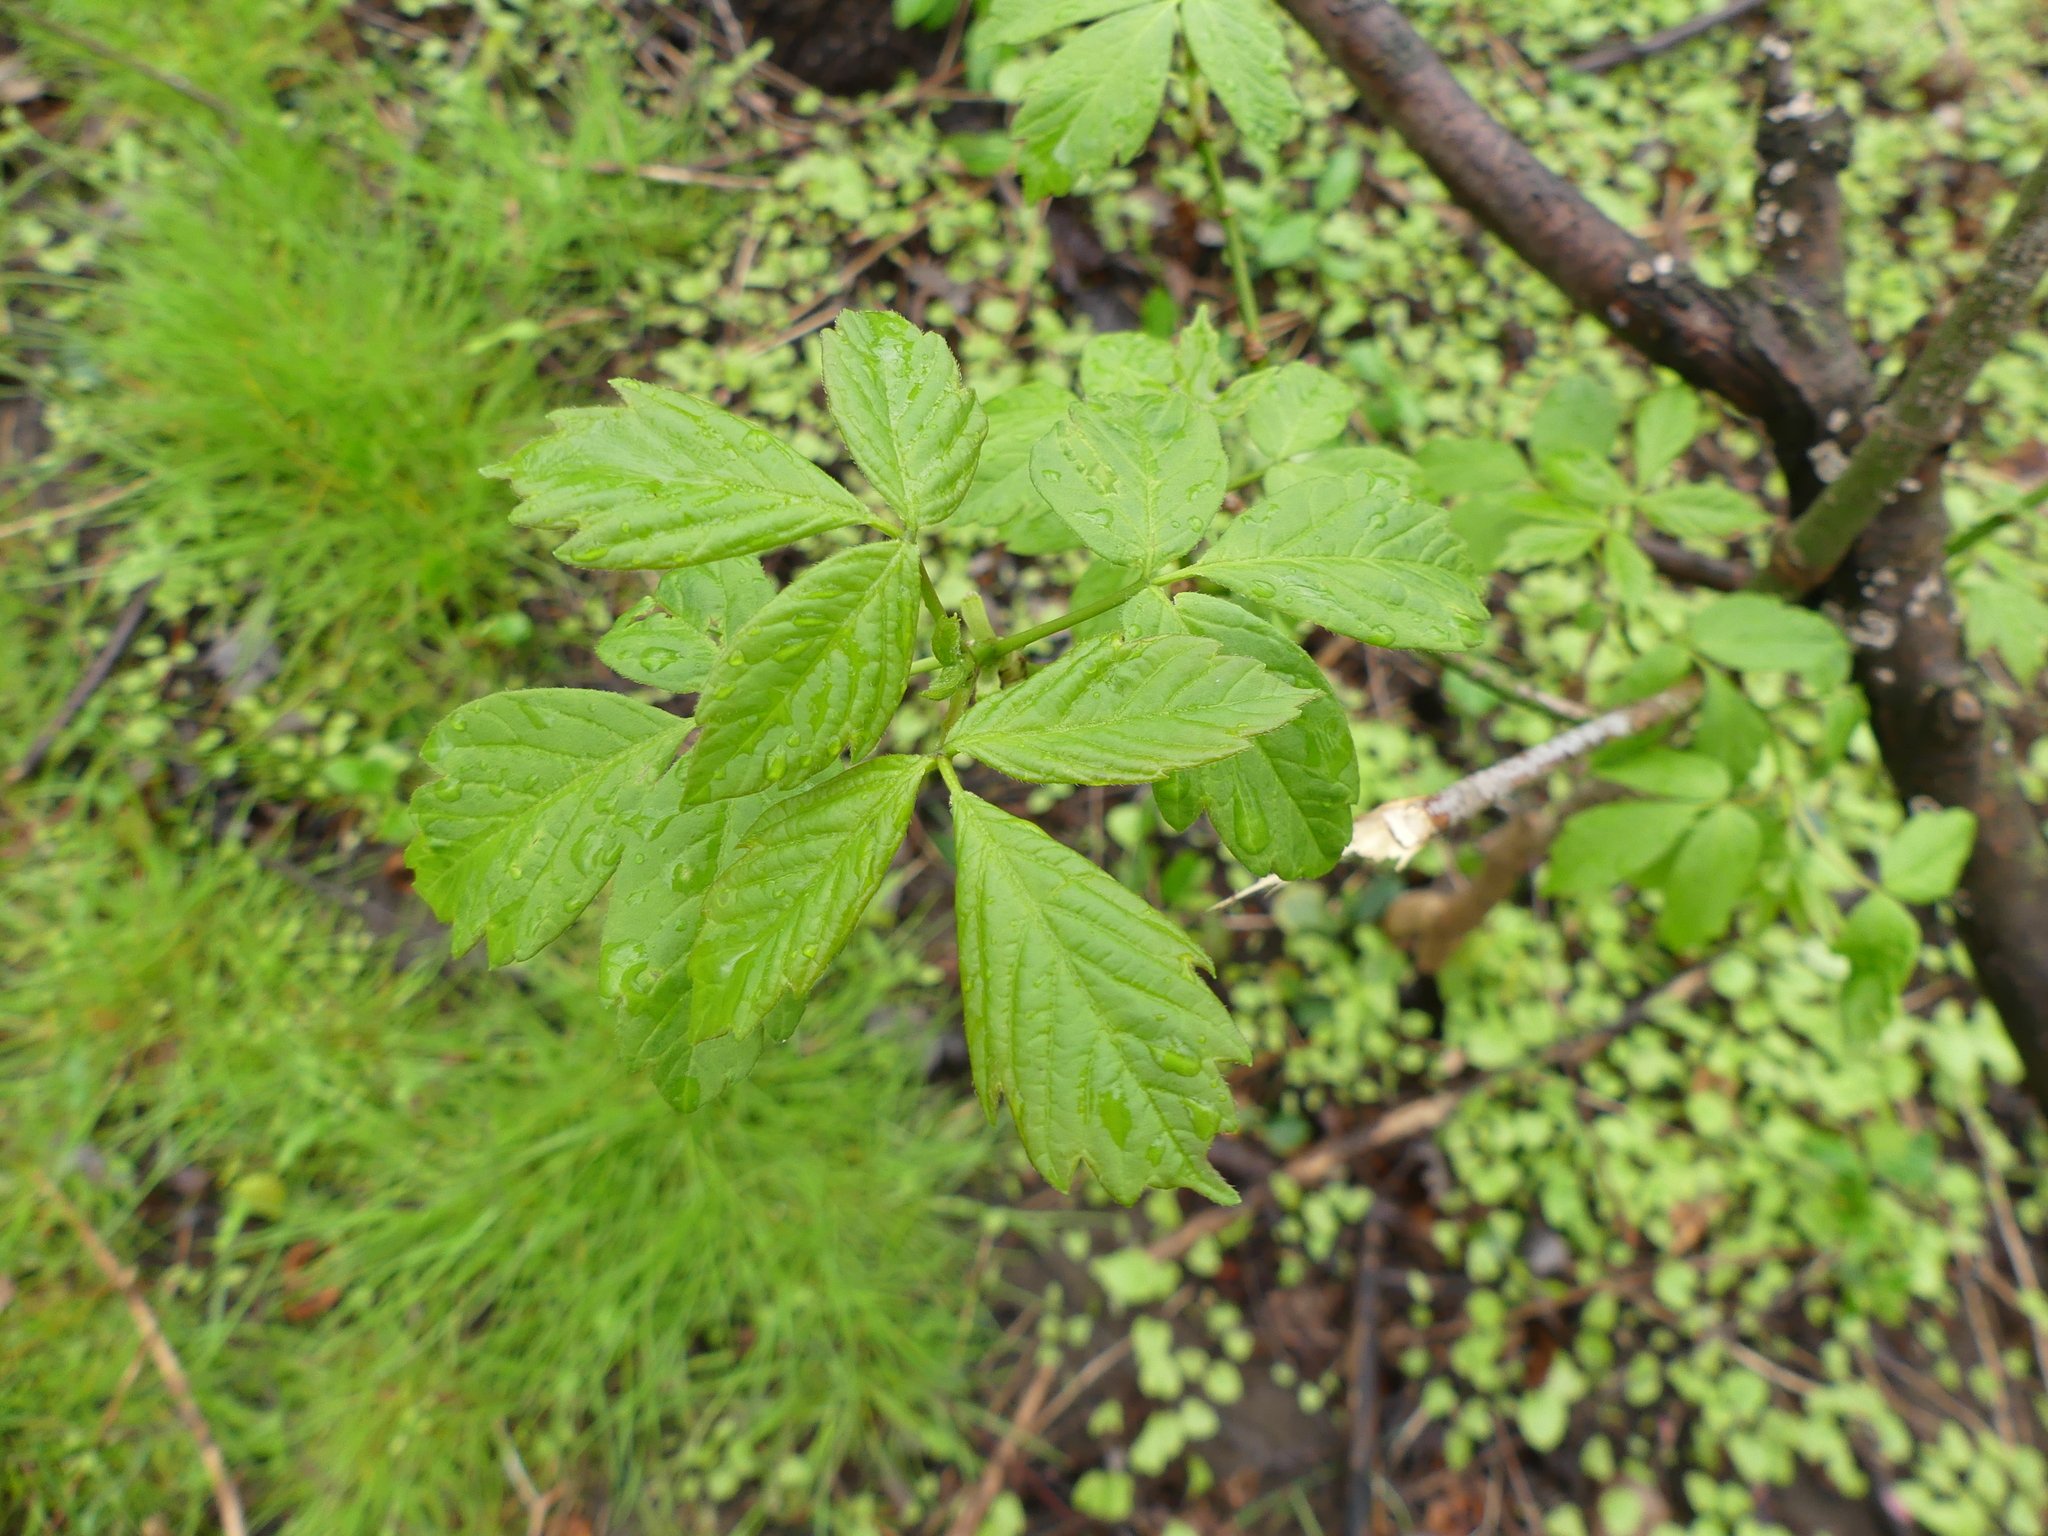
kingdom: Plantae
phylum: Tracheophyta
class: Magnoliopsida
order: Sapindales
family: Sapindaceae
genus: Acer
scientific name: Acer negundo
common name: Ashleaf maple
